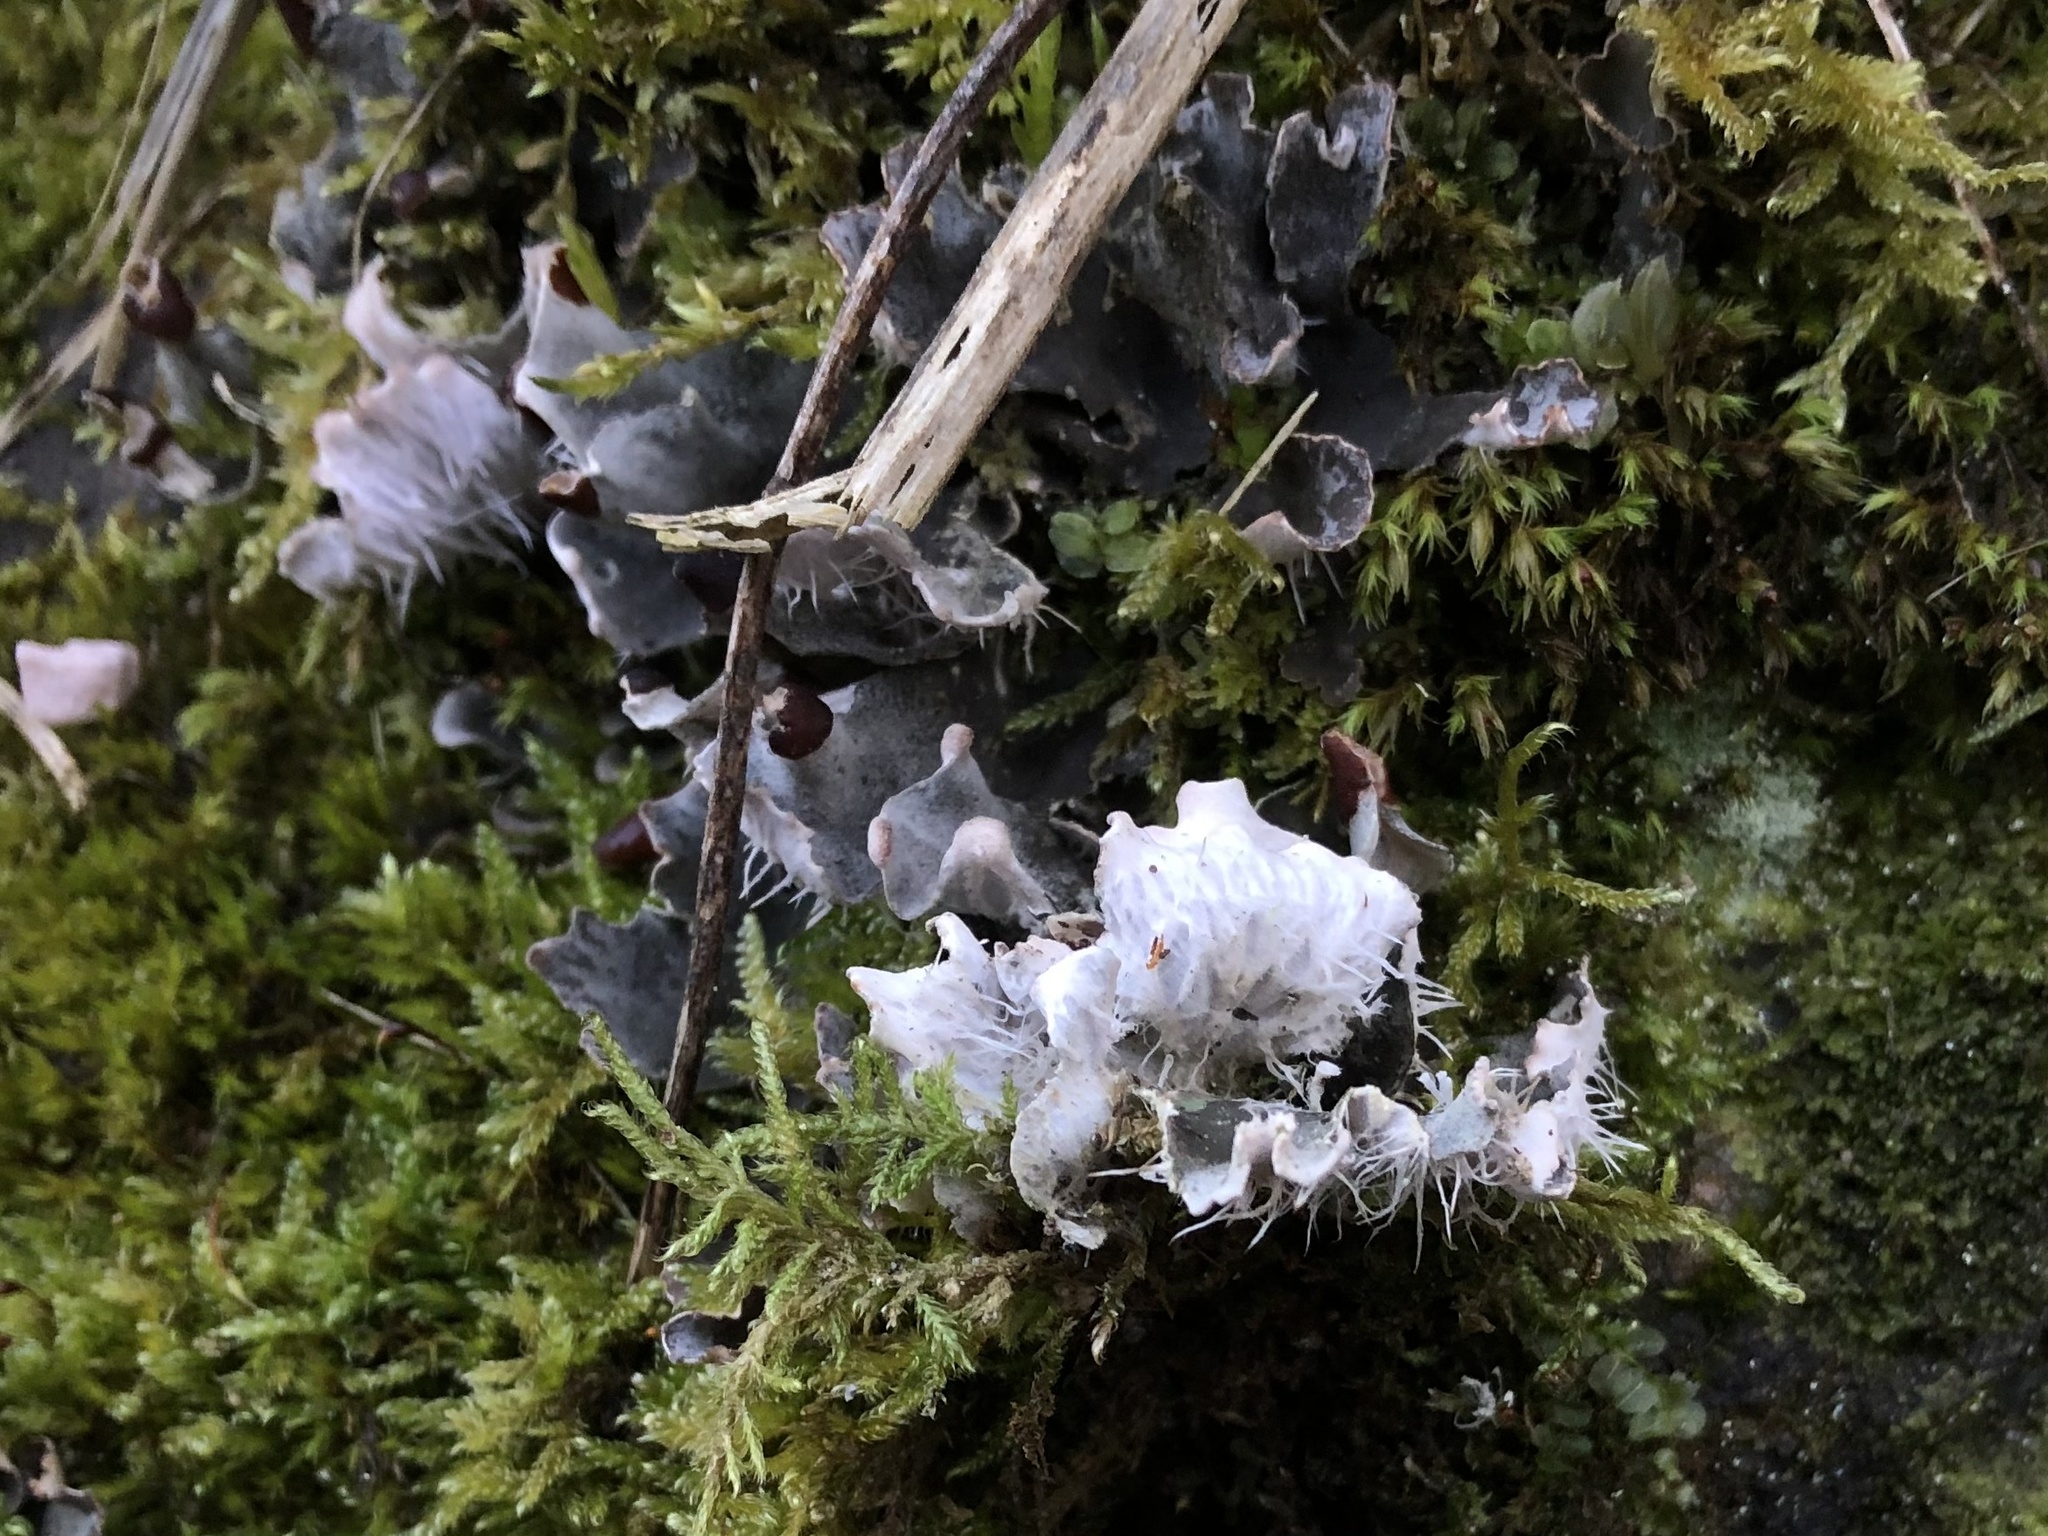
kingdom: Fungi
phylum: Ascomycota
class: Lecanoromycetes
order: Peltigerales
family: Peltigeraceae
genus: Peltigera
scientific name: Peltigera didactyla
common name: Alternating dog lichen
